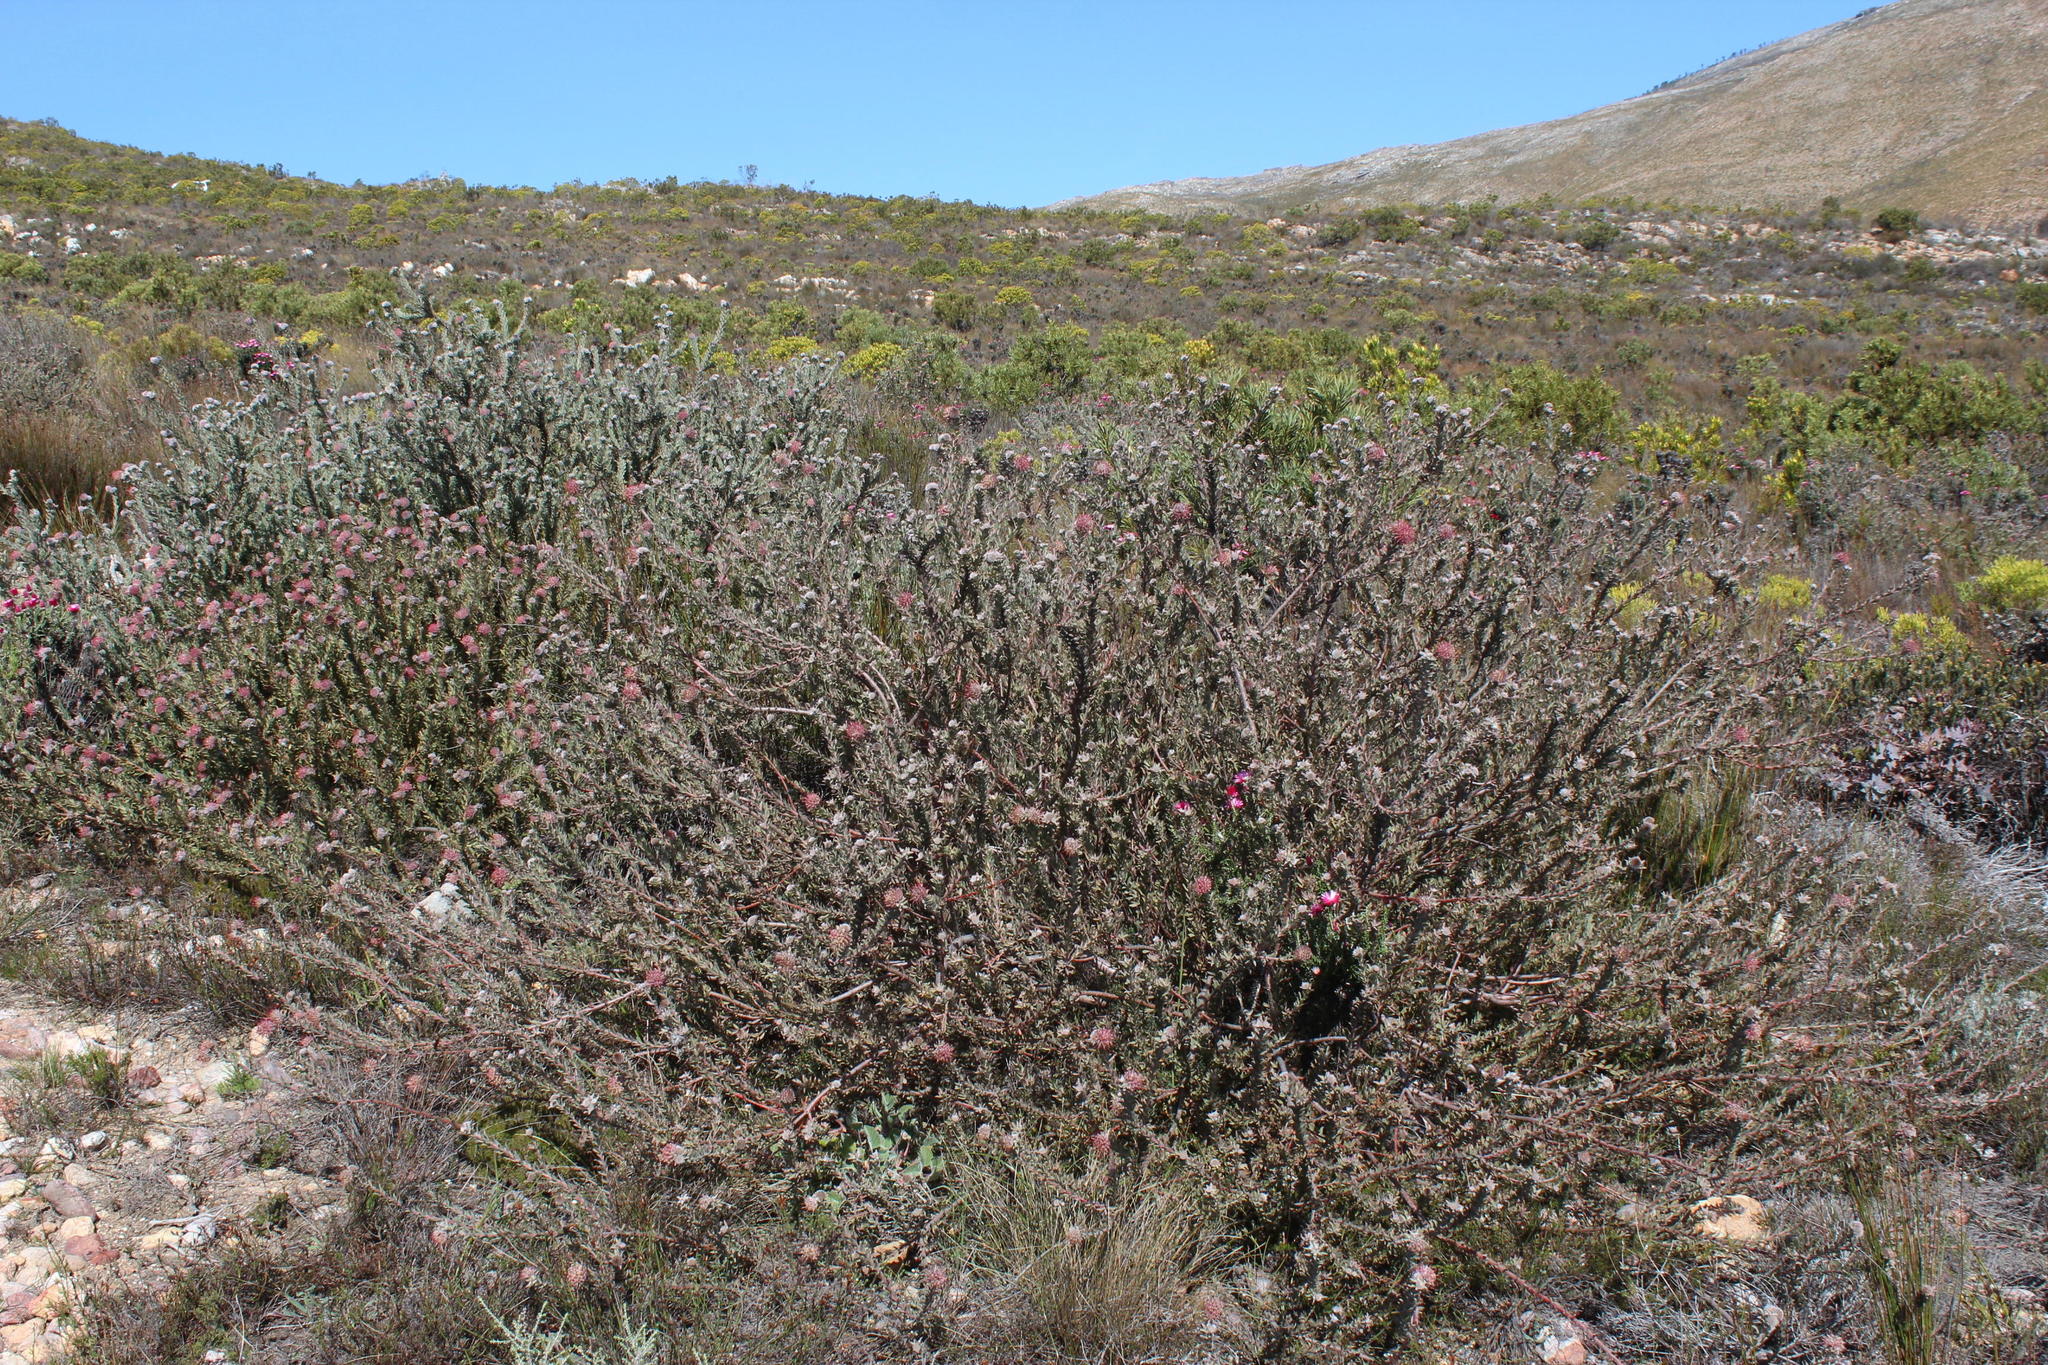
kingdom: Plantae
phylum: Tracheophyta
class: Magnoliopsida
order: Proteales
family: Proteaceae
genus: Leucospermum
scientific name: Leucospermum calligerum
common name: Arid pincushion
